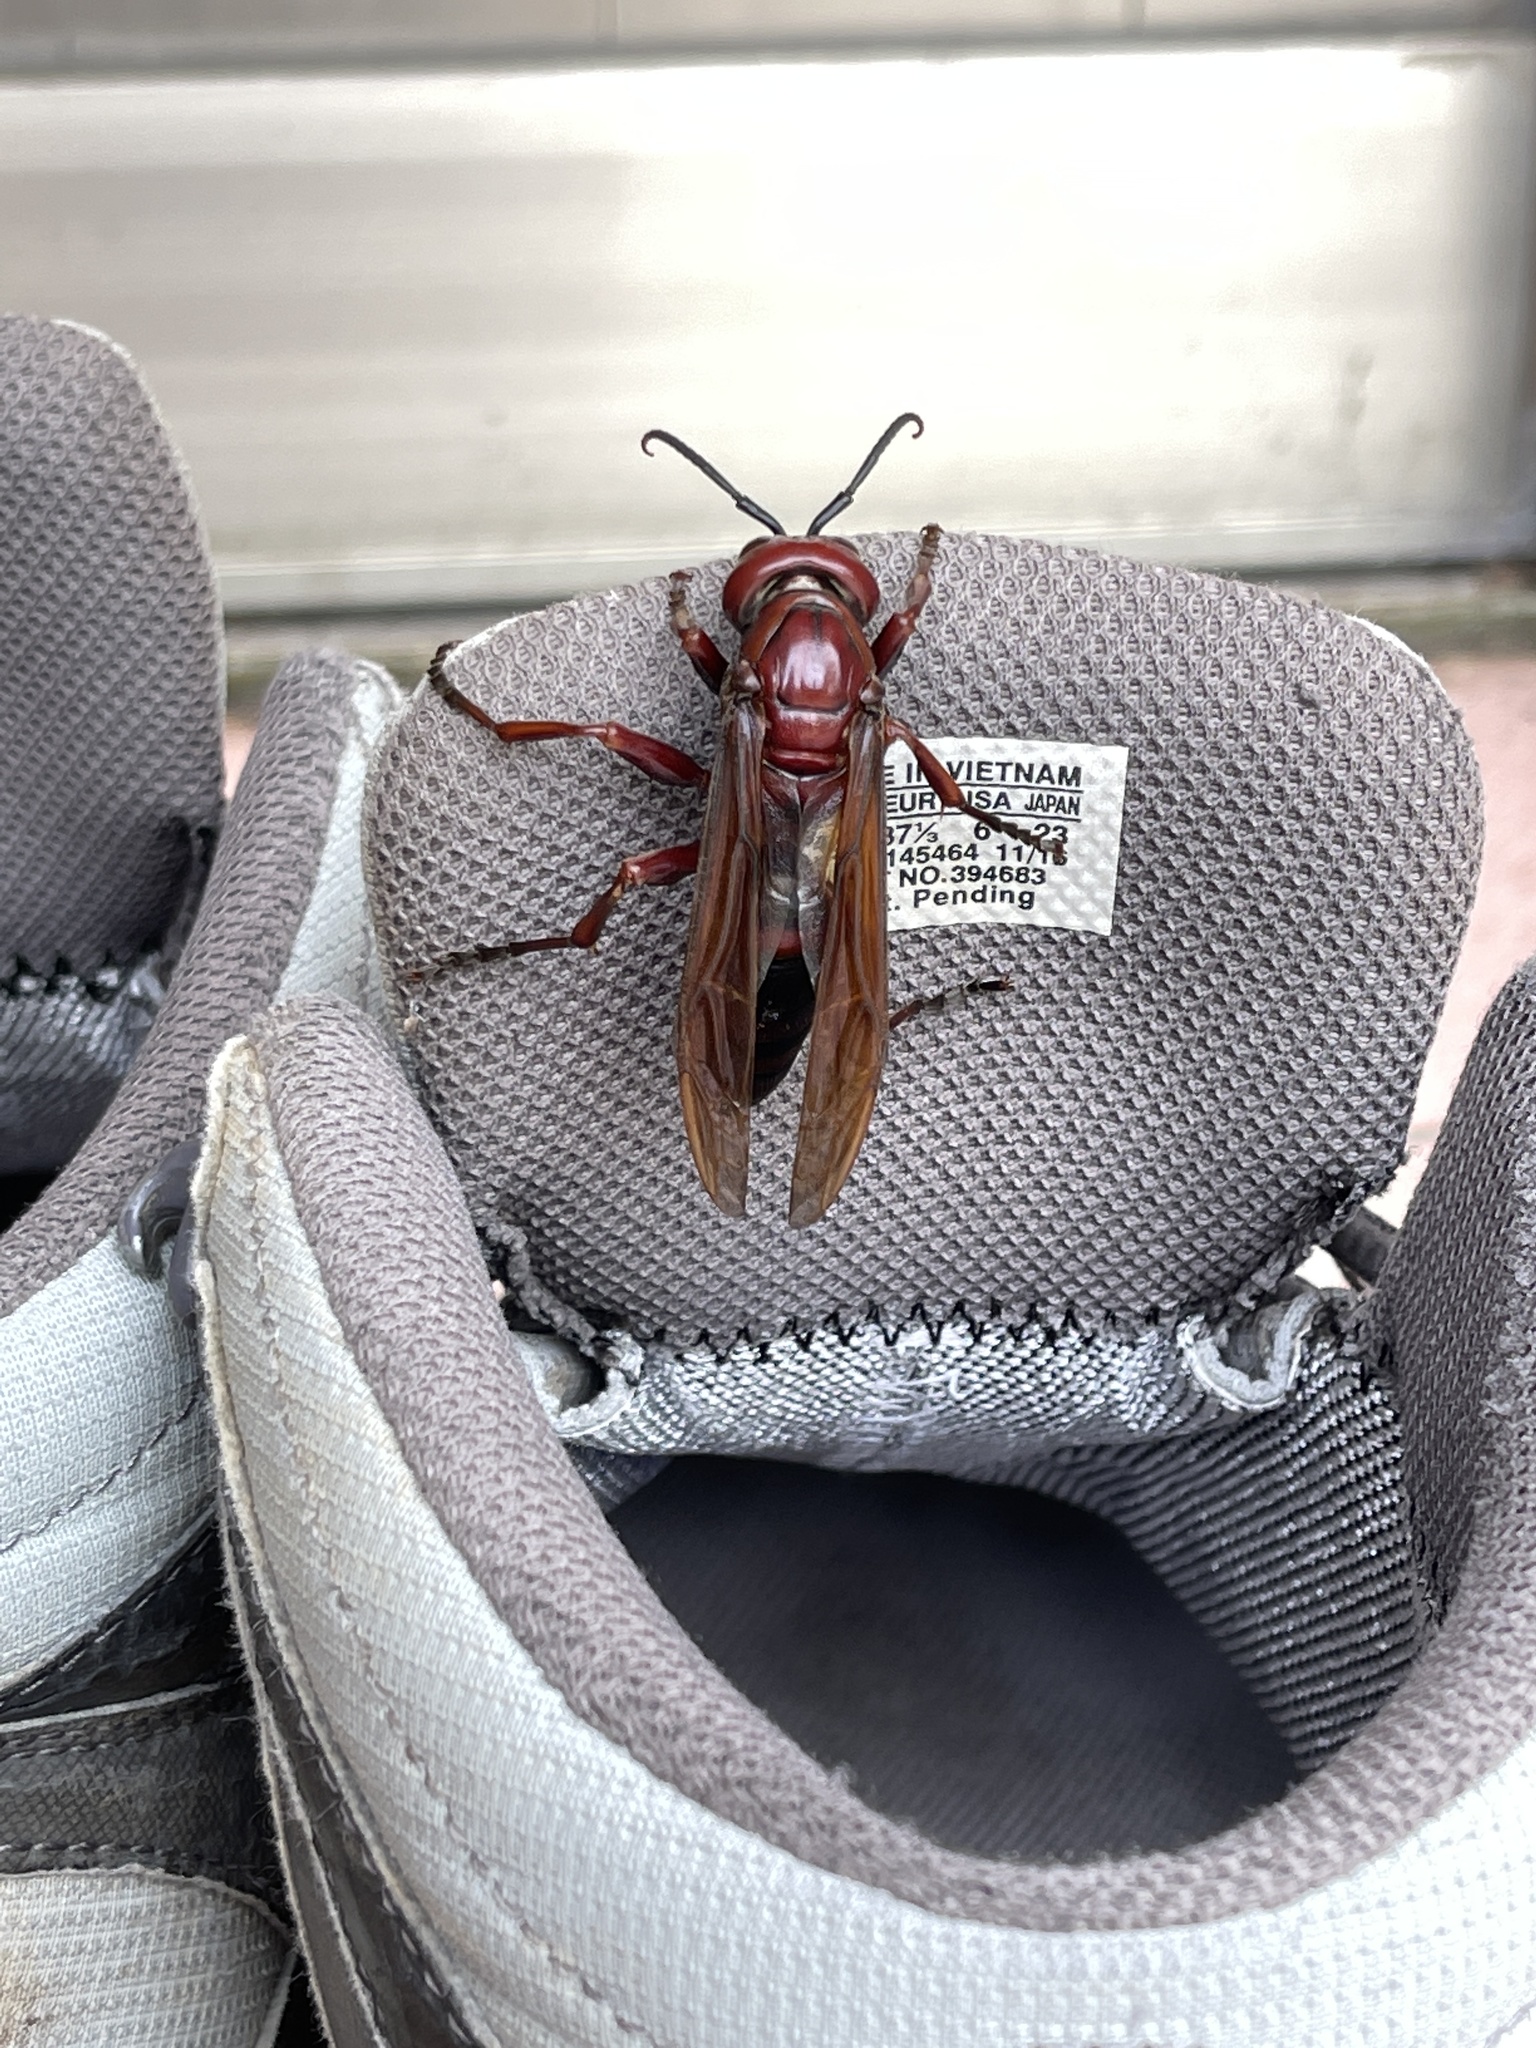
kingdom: Animalia
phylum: Arthropoda
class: Insecta
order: Hymenoptera
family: Eumenidae
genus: Polistes
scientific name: Polistes gigas
